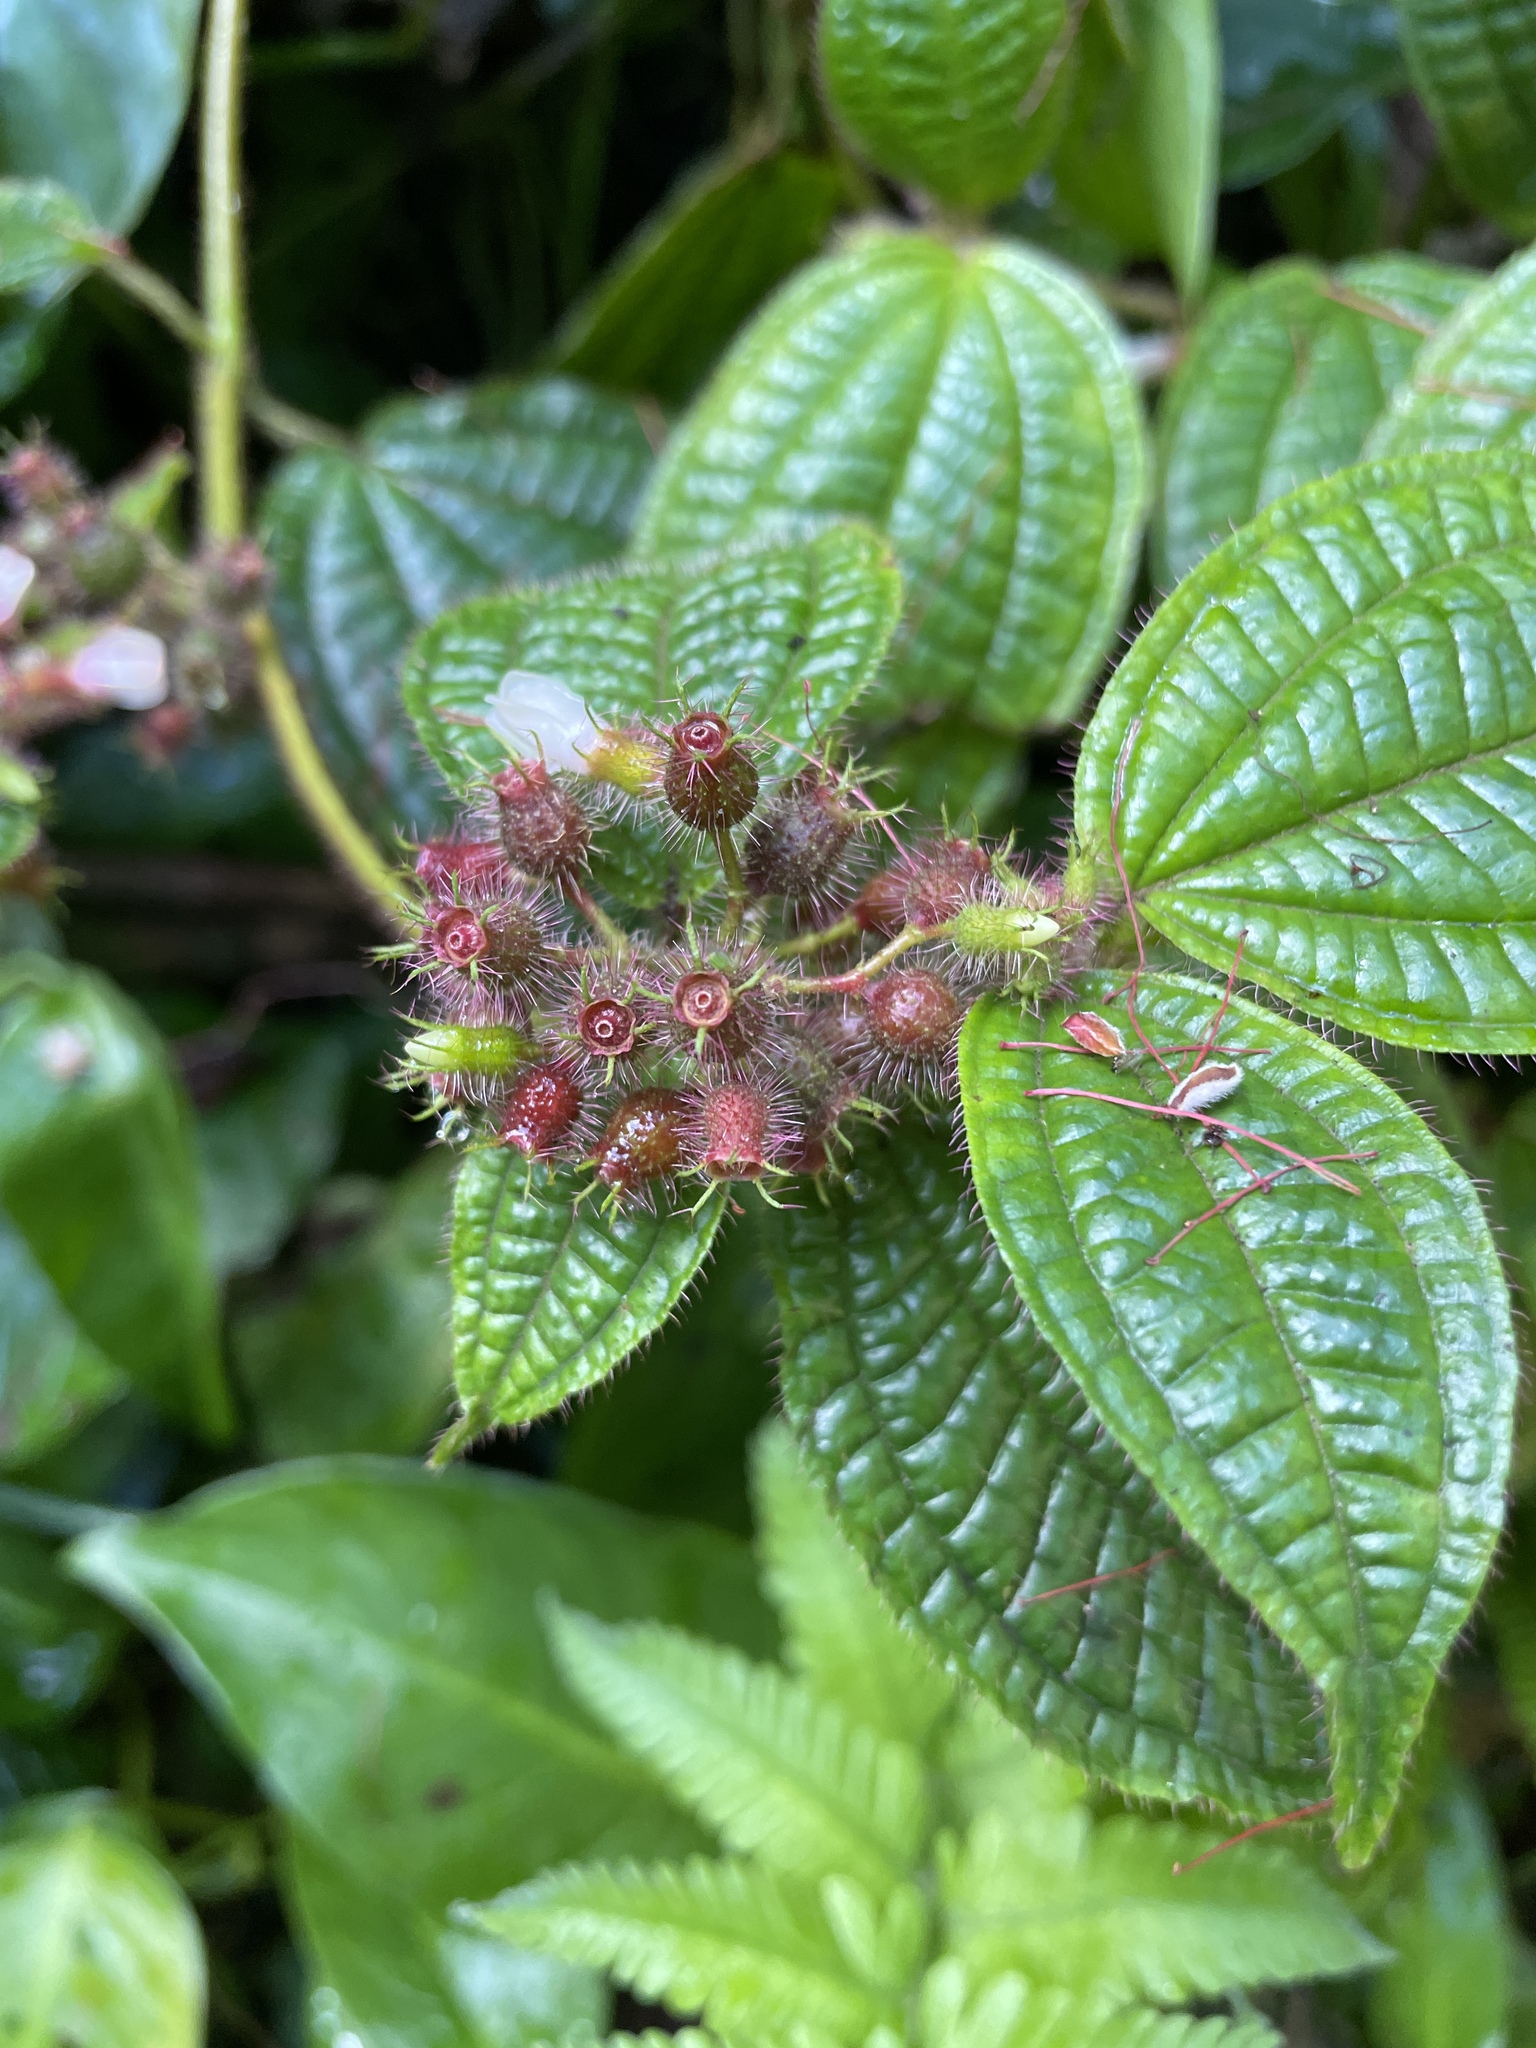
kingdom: Plantae
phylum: Tracheophyta
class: Magnoliopsida
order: Myrtales
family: Melastomataceae
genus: Miconia
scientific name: Miconia crenata
